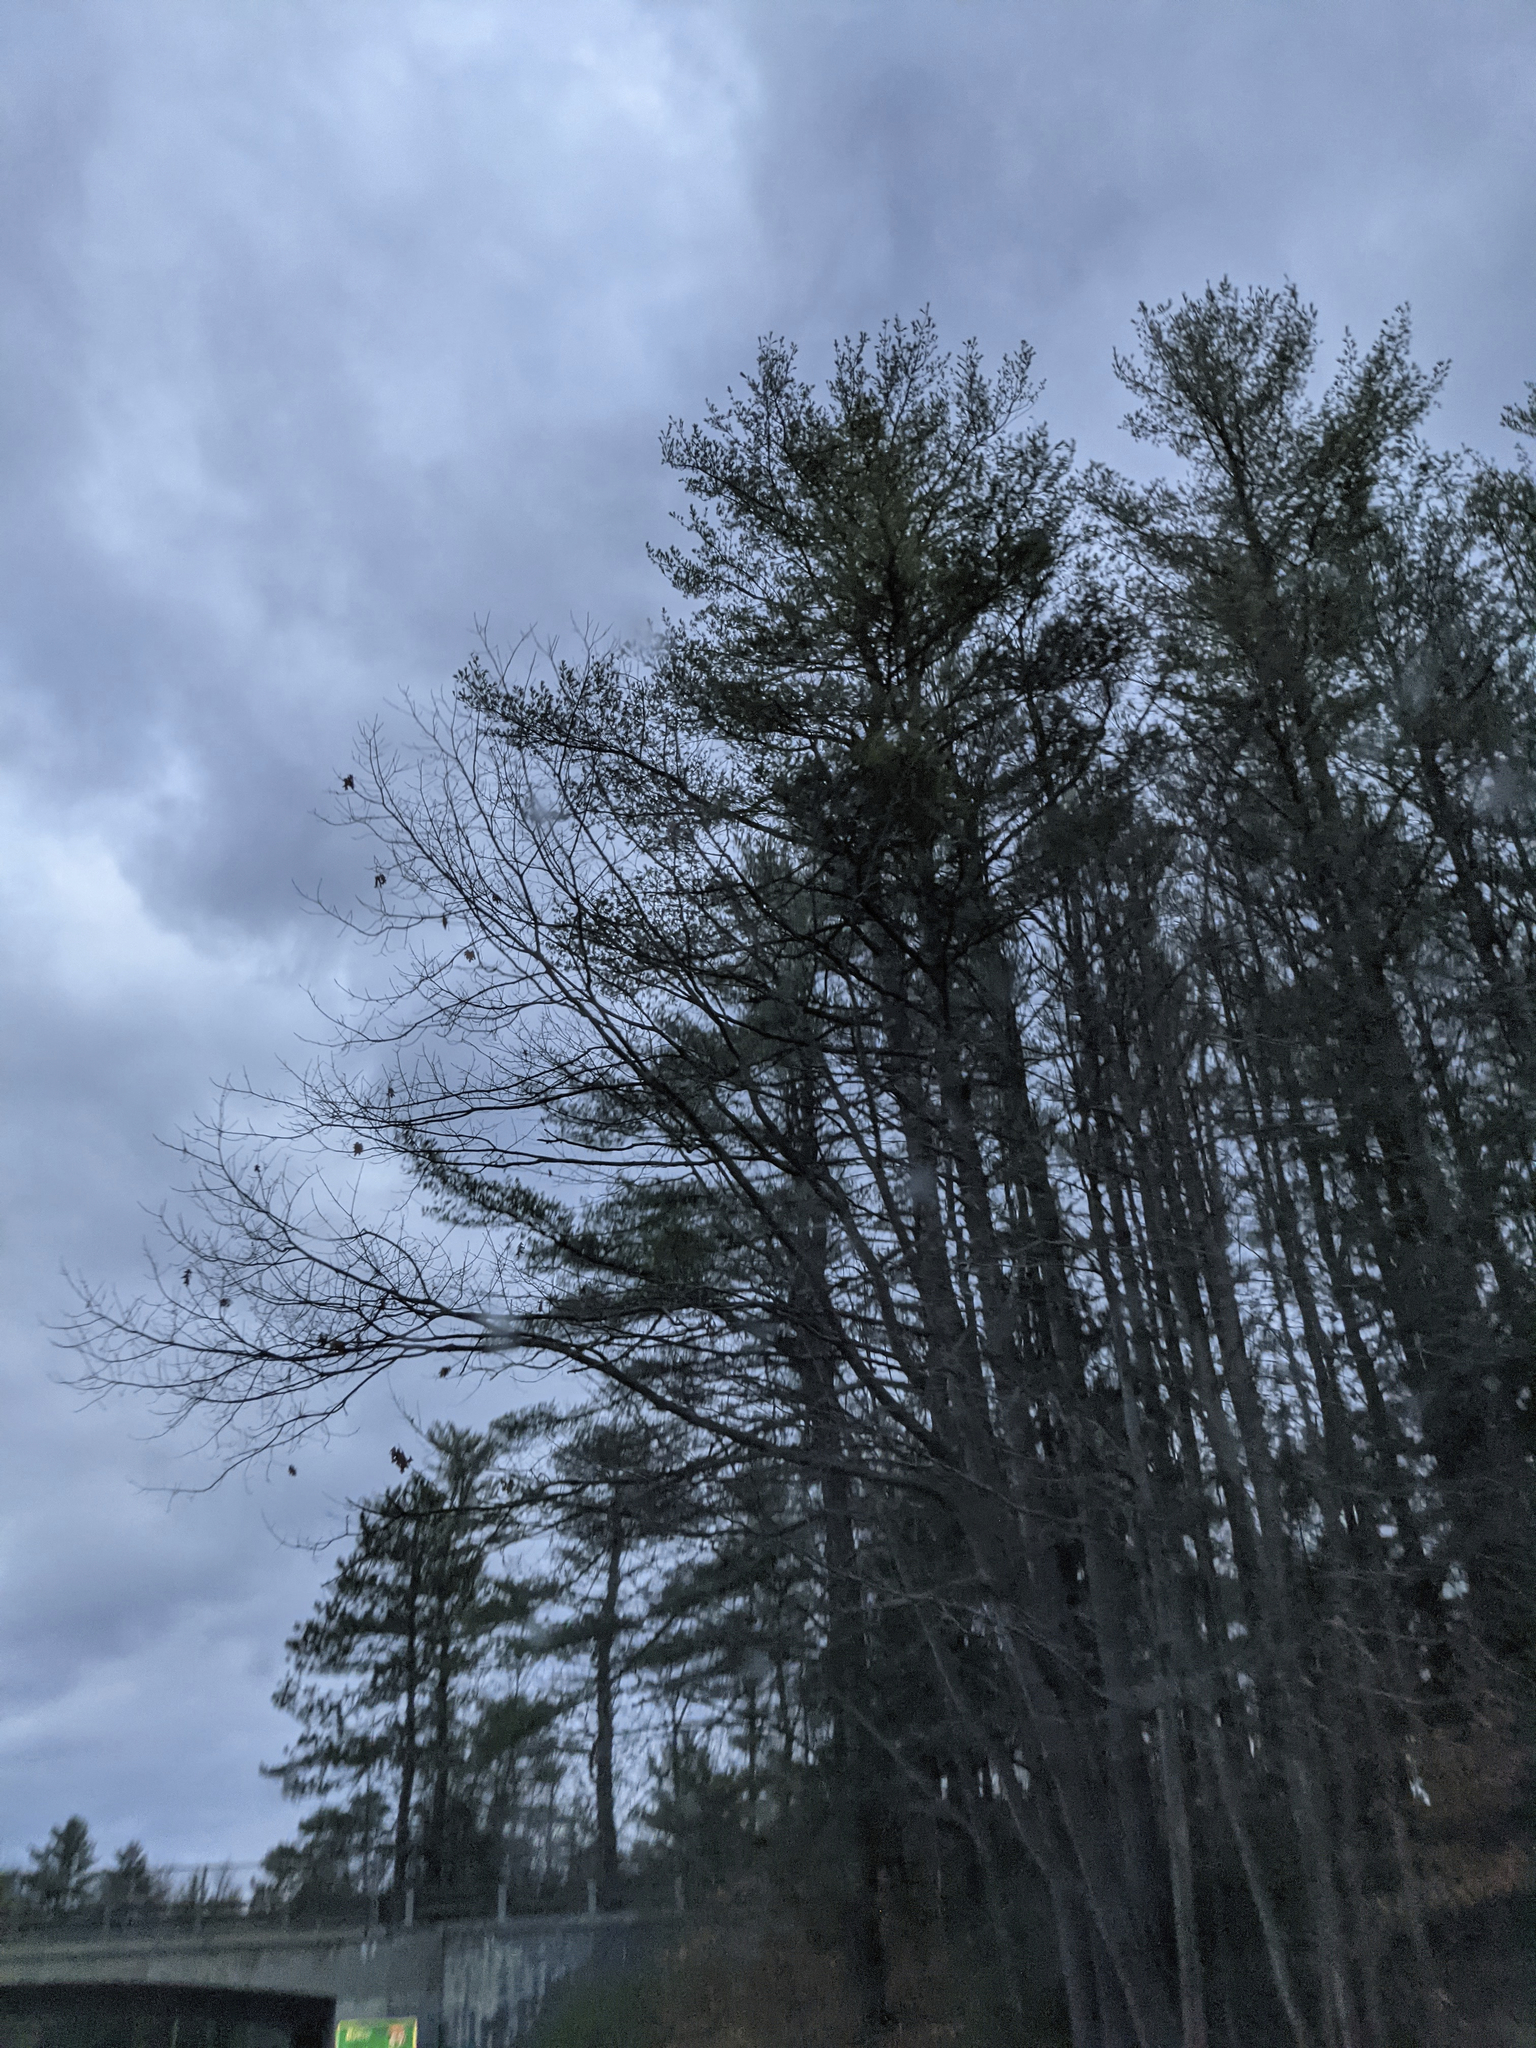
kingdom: Plantae
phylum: Tracheophyta
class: Pinopsida
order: Pinales
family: Pinaceae
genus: Pinus
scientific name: Pinus strobus
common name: Weymouth pine
